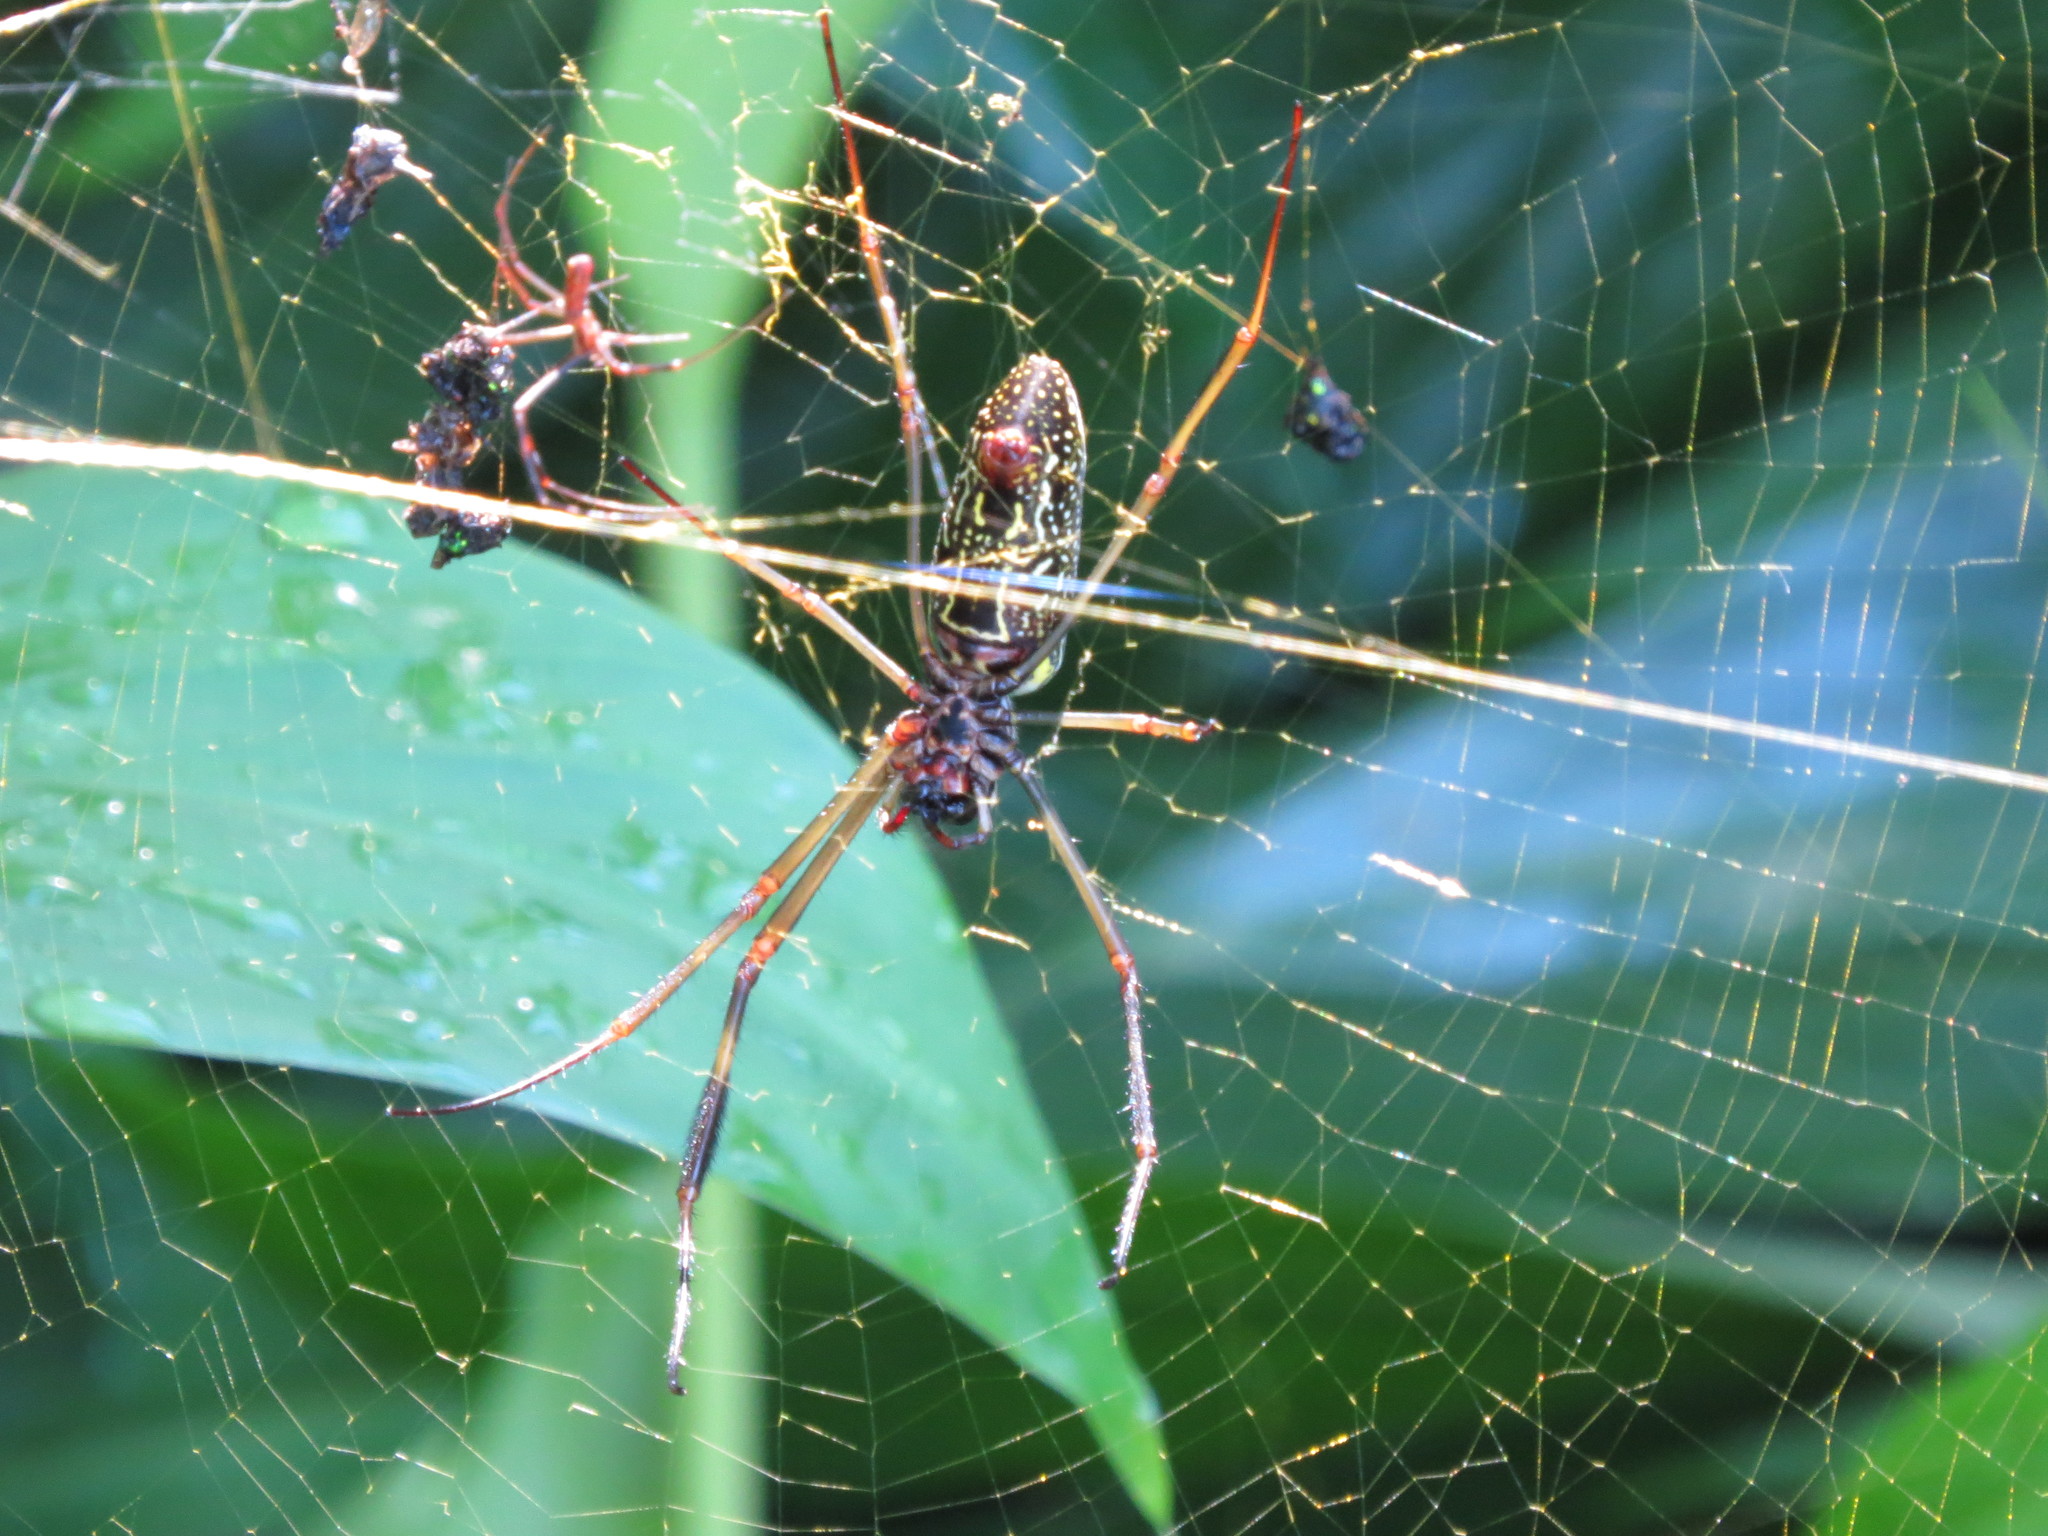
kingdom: Animalia
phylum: Arthropoda
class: Arachnida
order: Araneae
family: Araneidae
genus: Trichonephila
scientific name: Trichonephila clavipes
